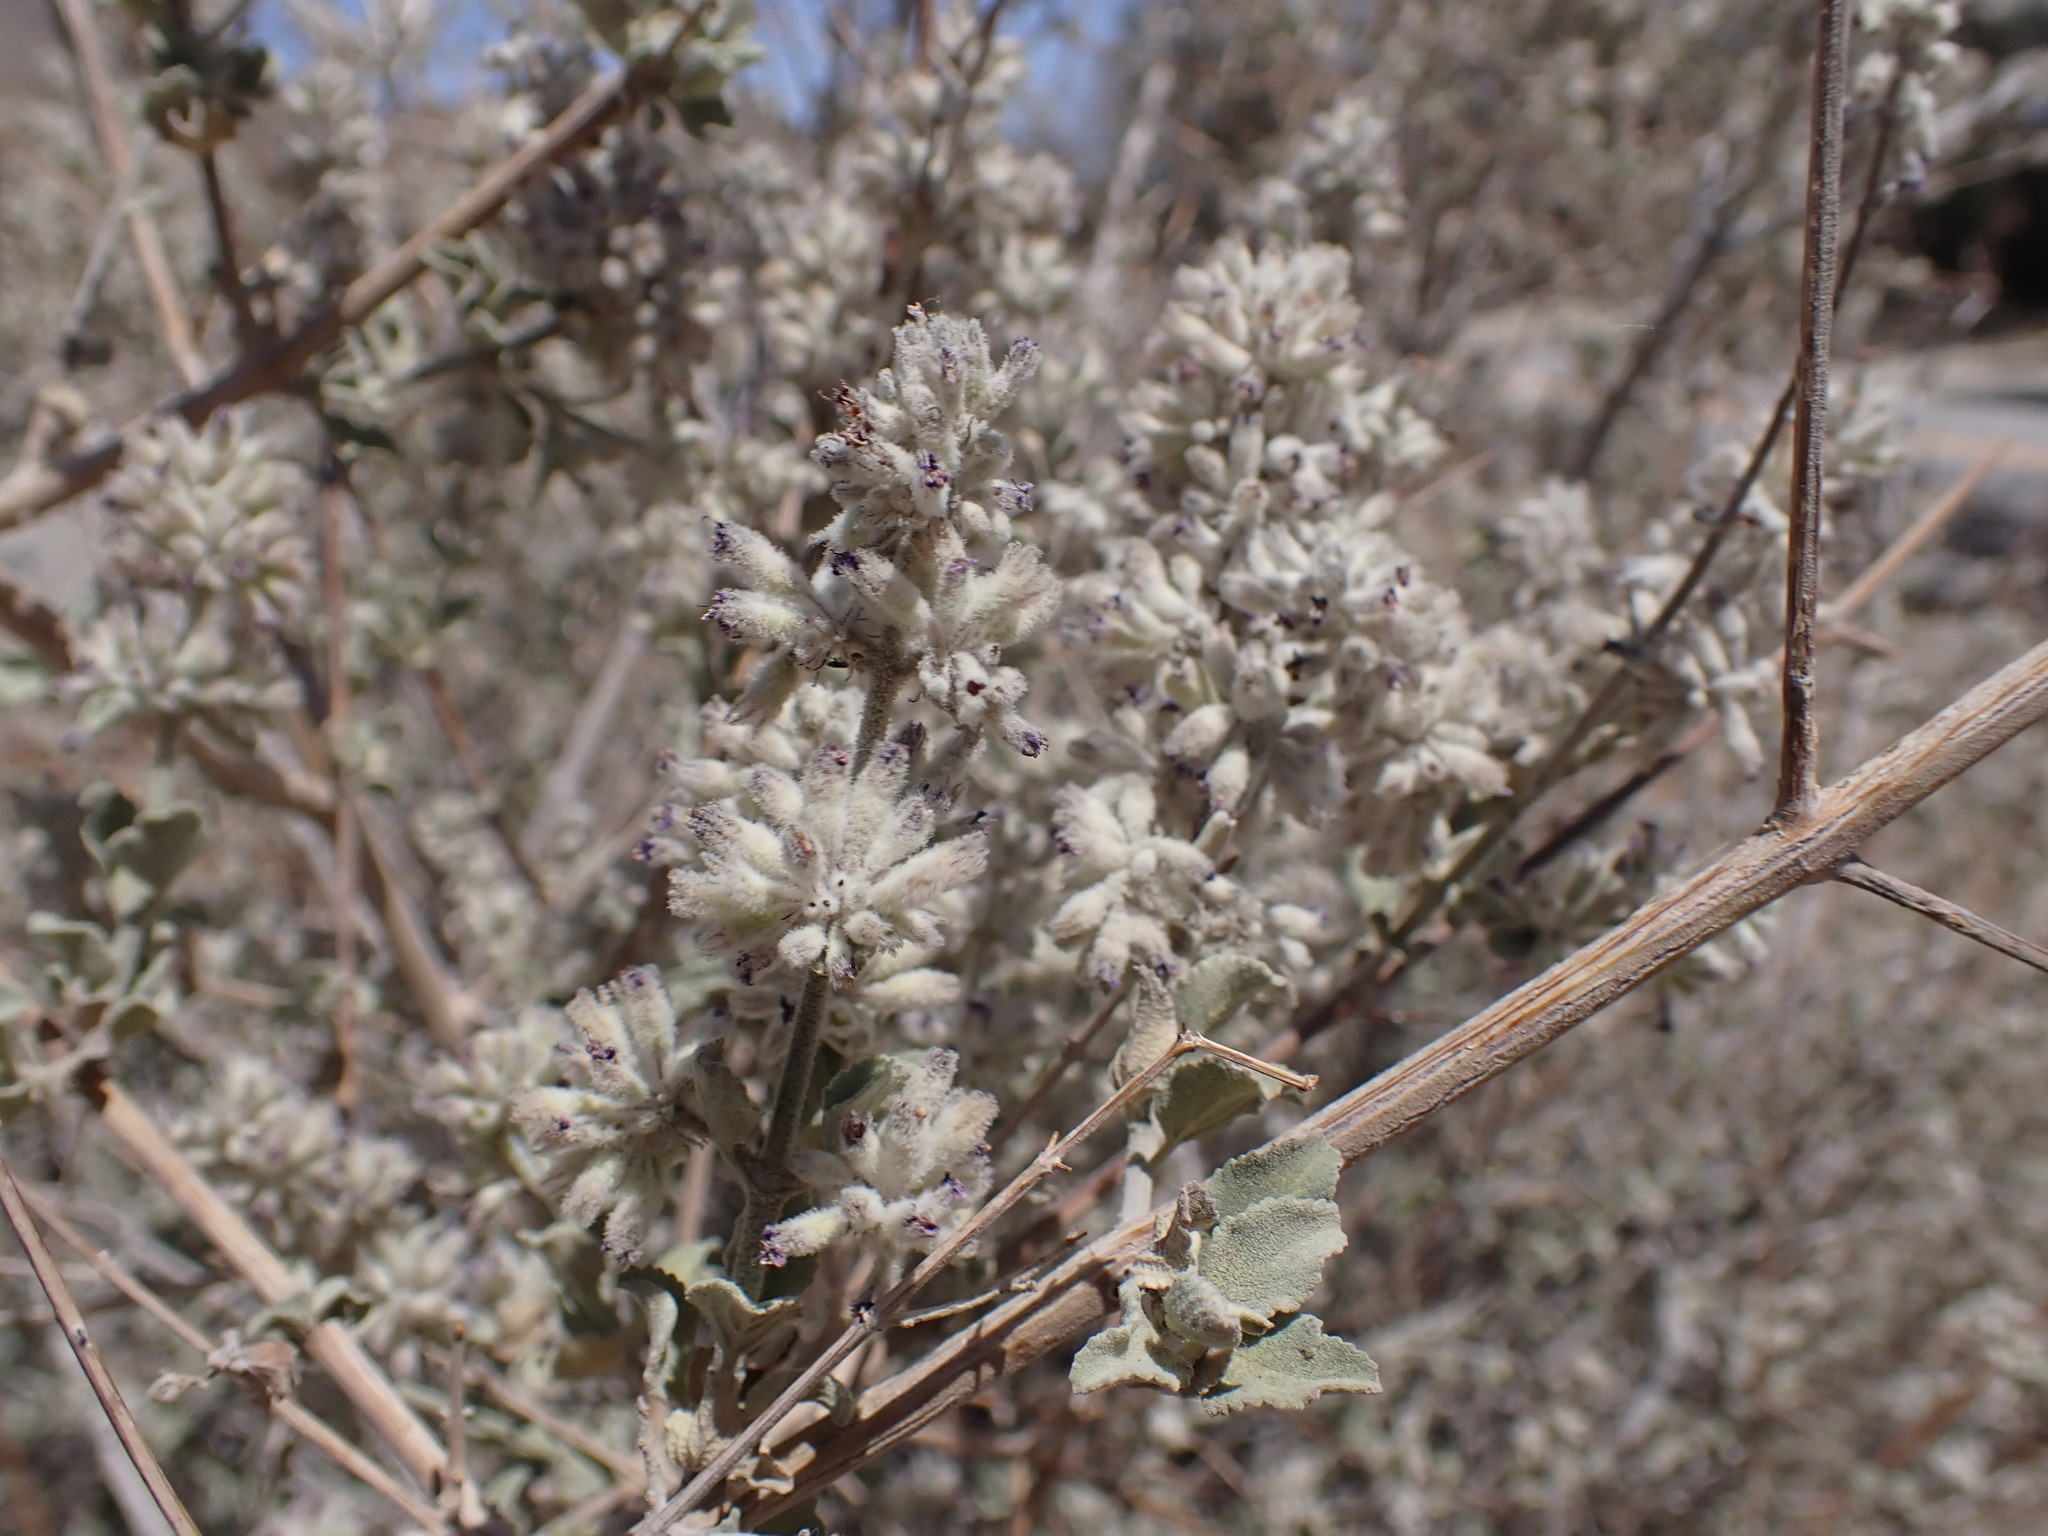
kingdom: Plantae
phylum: Tracheophyta
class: Magnoliopsida
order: Lamiales
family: Lamiaceae
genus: Condea
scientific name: Condea emoryi
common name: Chia
